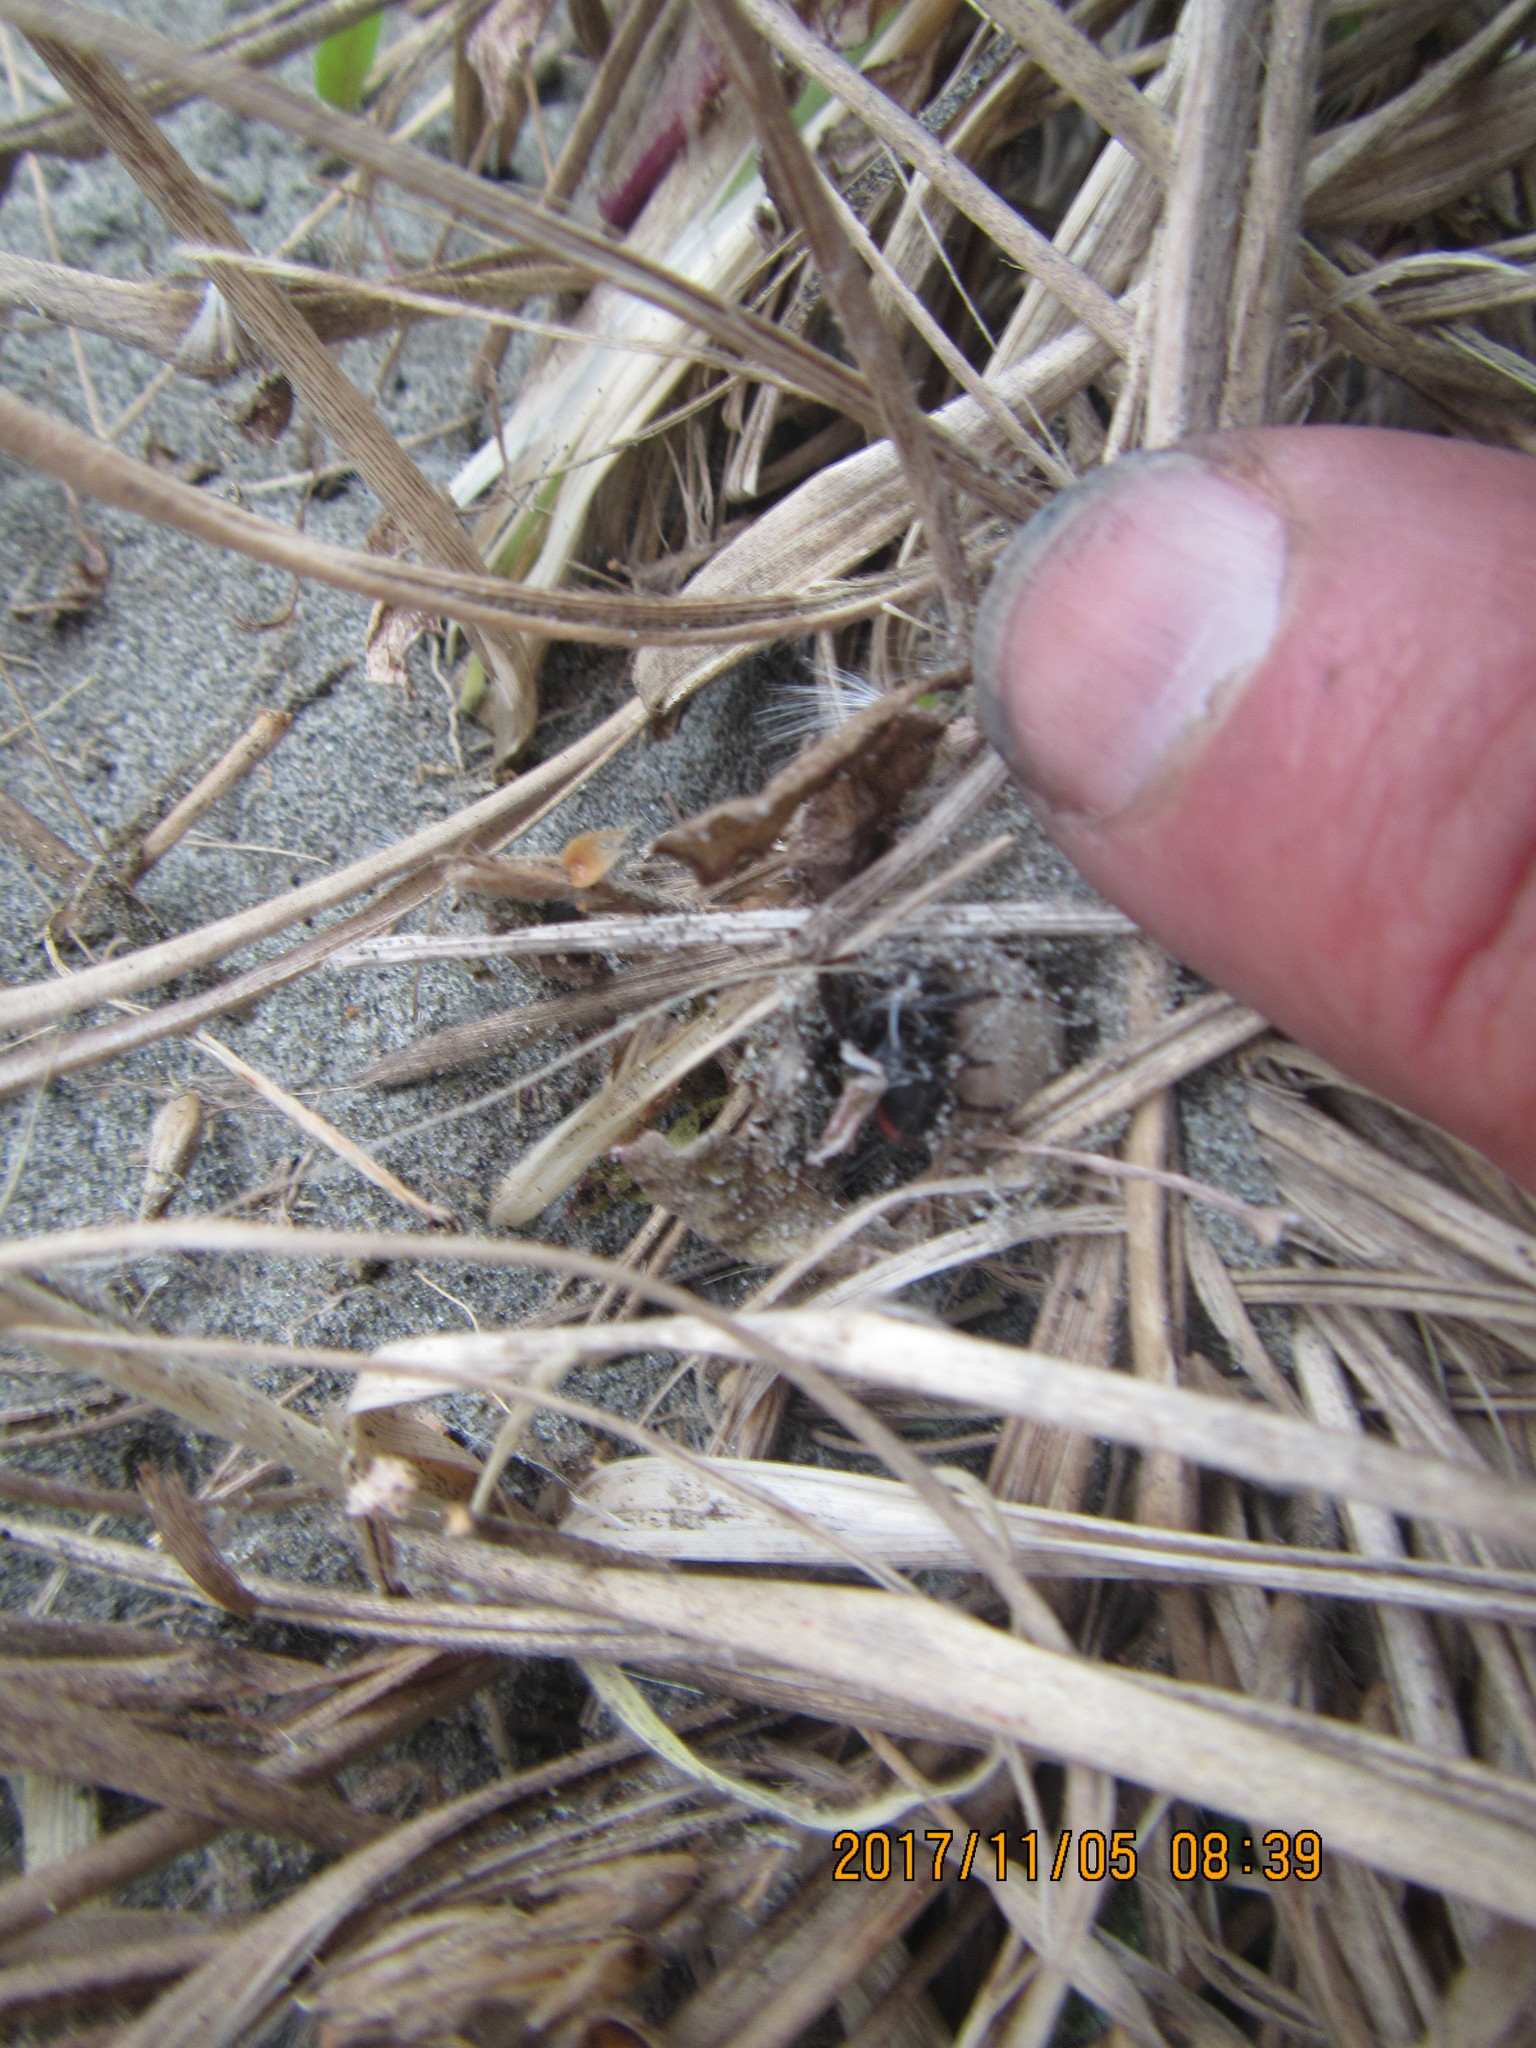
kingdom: Animalia
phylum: Arthropoda
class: Arachnida
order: Araneae
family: Theridiidae
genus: Latrodectus
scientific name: Latrodectus katipo
